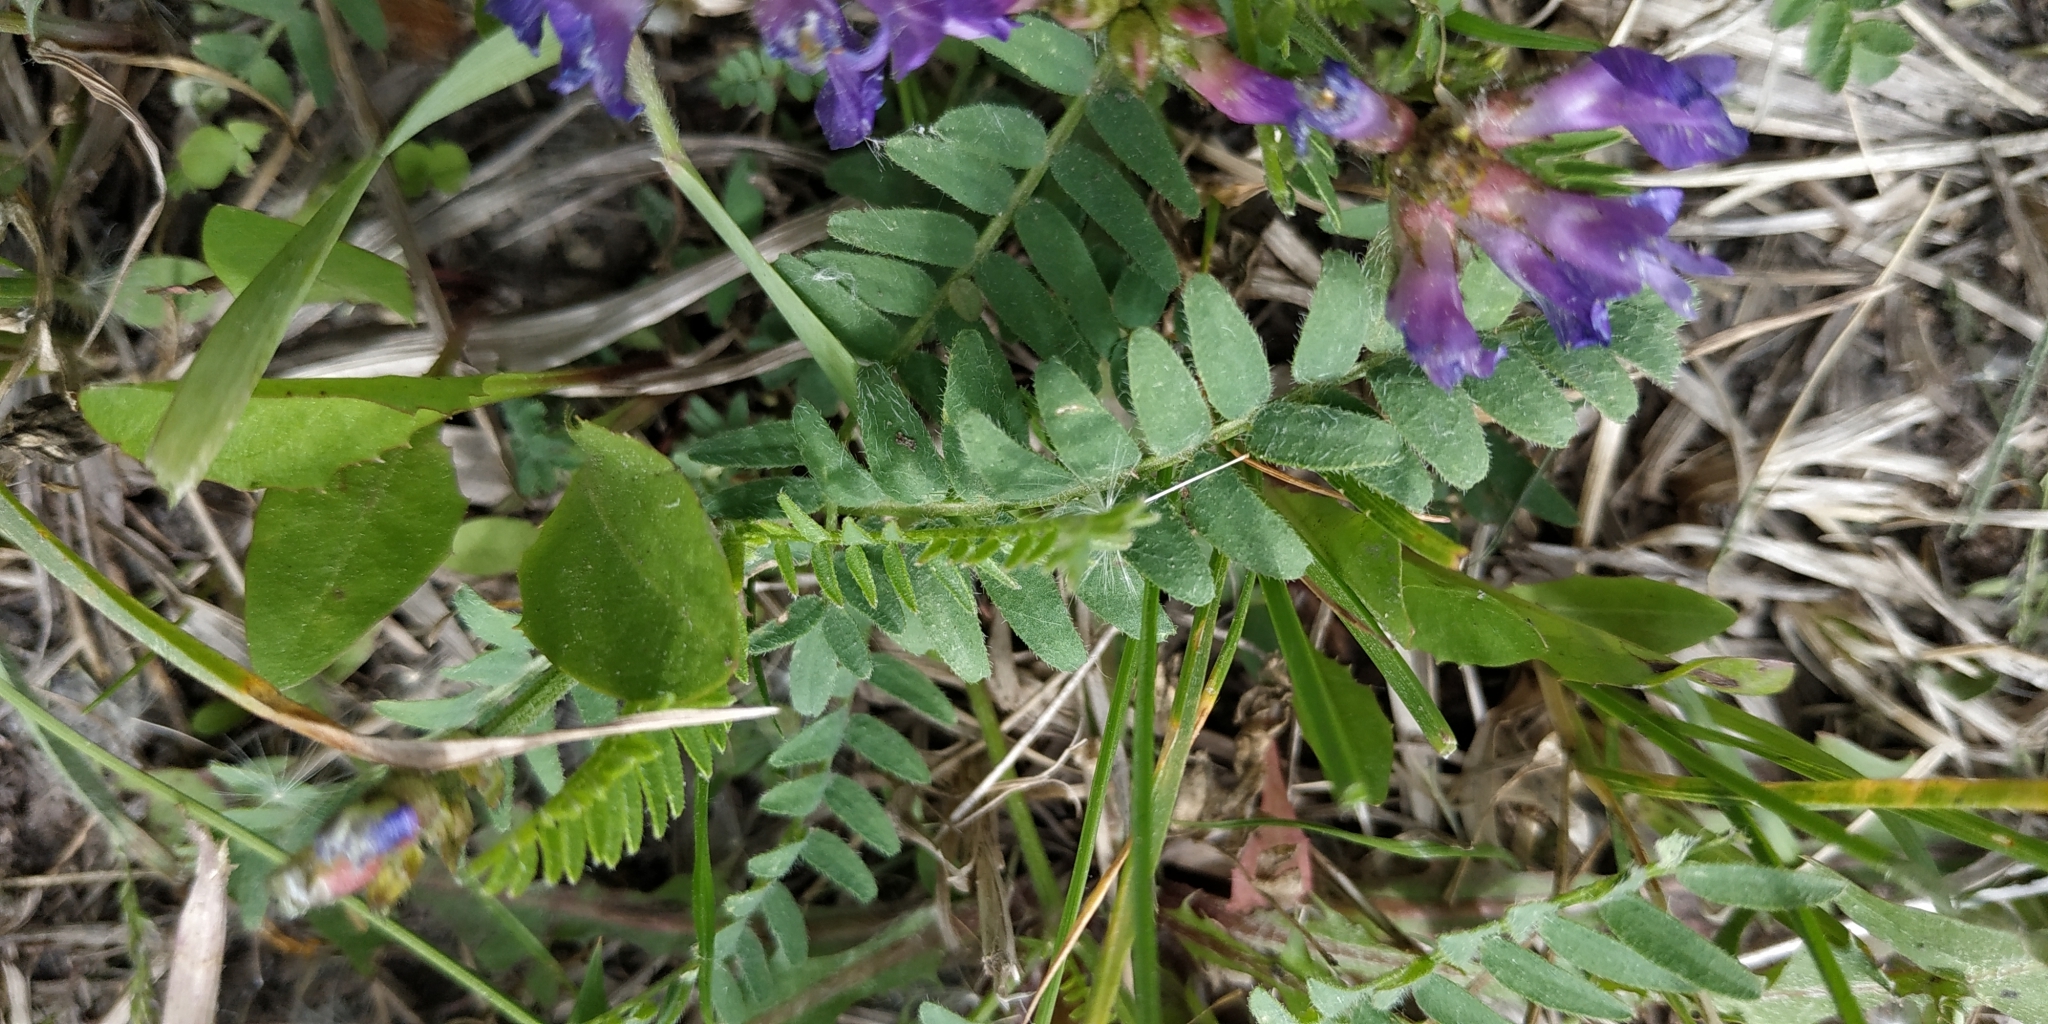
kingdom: Plantae
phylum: Tracheophyta
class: Magnoliopsida
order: Fabales
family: Fabaceae
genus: Astragalus
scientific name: Astragalus danicus
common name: Purple milk-vetch
